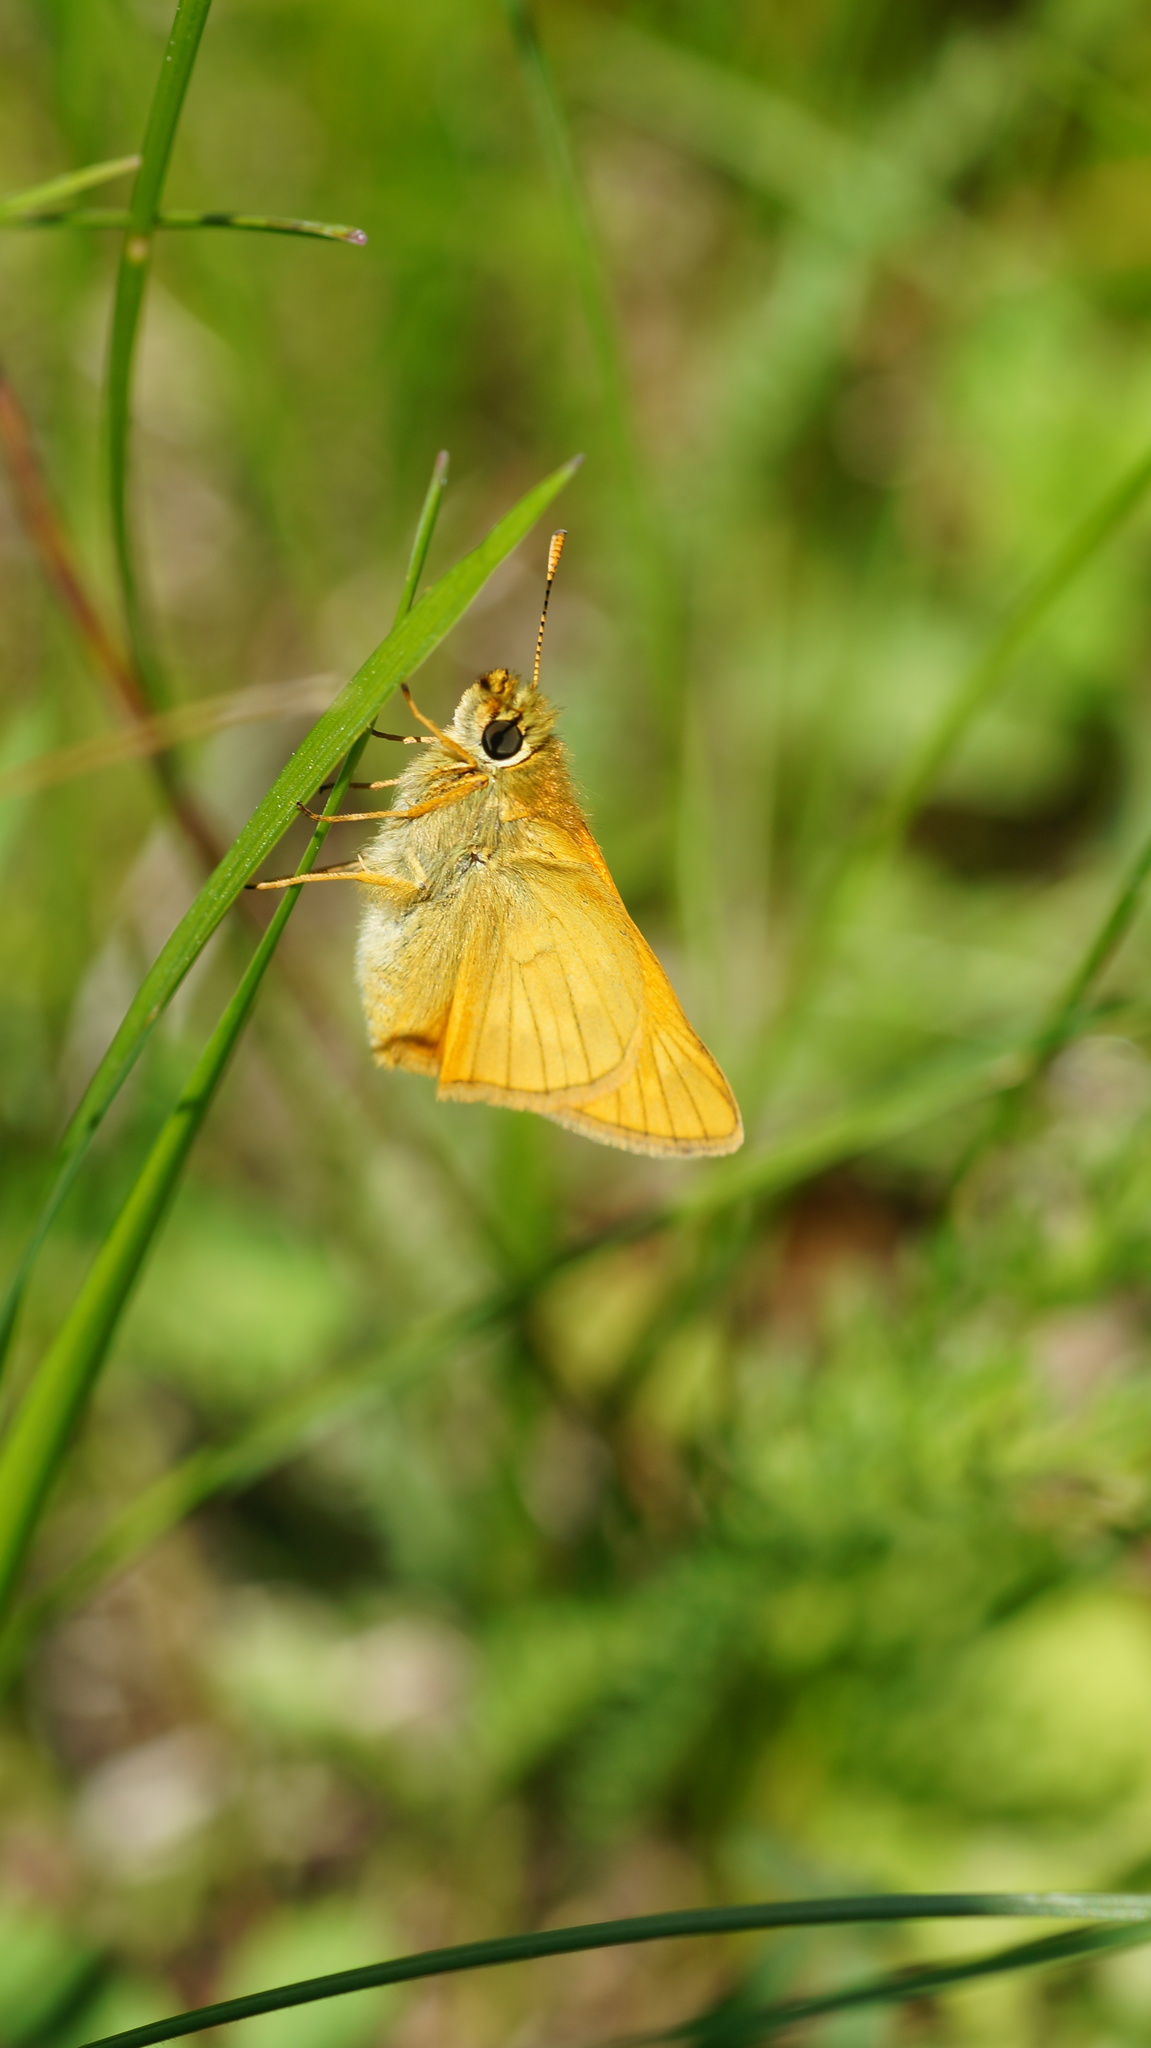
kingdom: Animalia
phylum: Arthropoda
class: Insecta
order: Lepidoptera
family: Hesperiidae
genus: Ochlodes
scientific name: Ochlodes venata
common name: Large skipper
